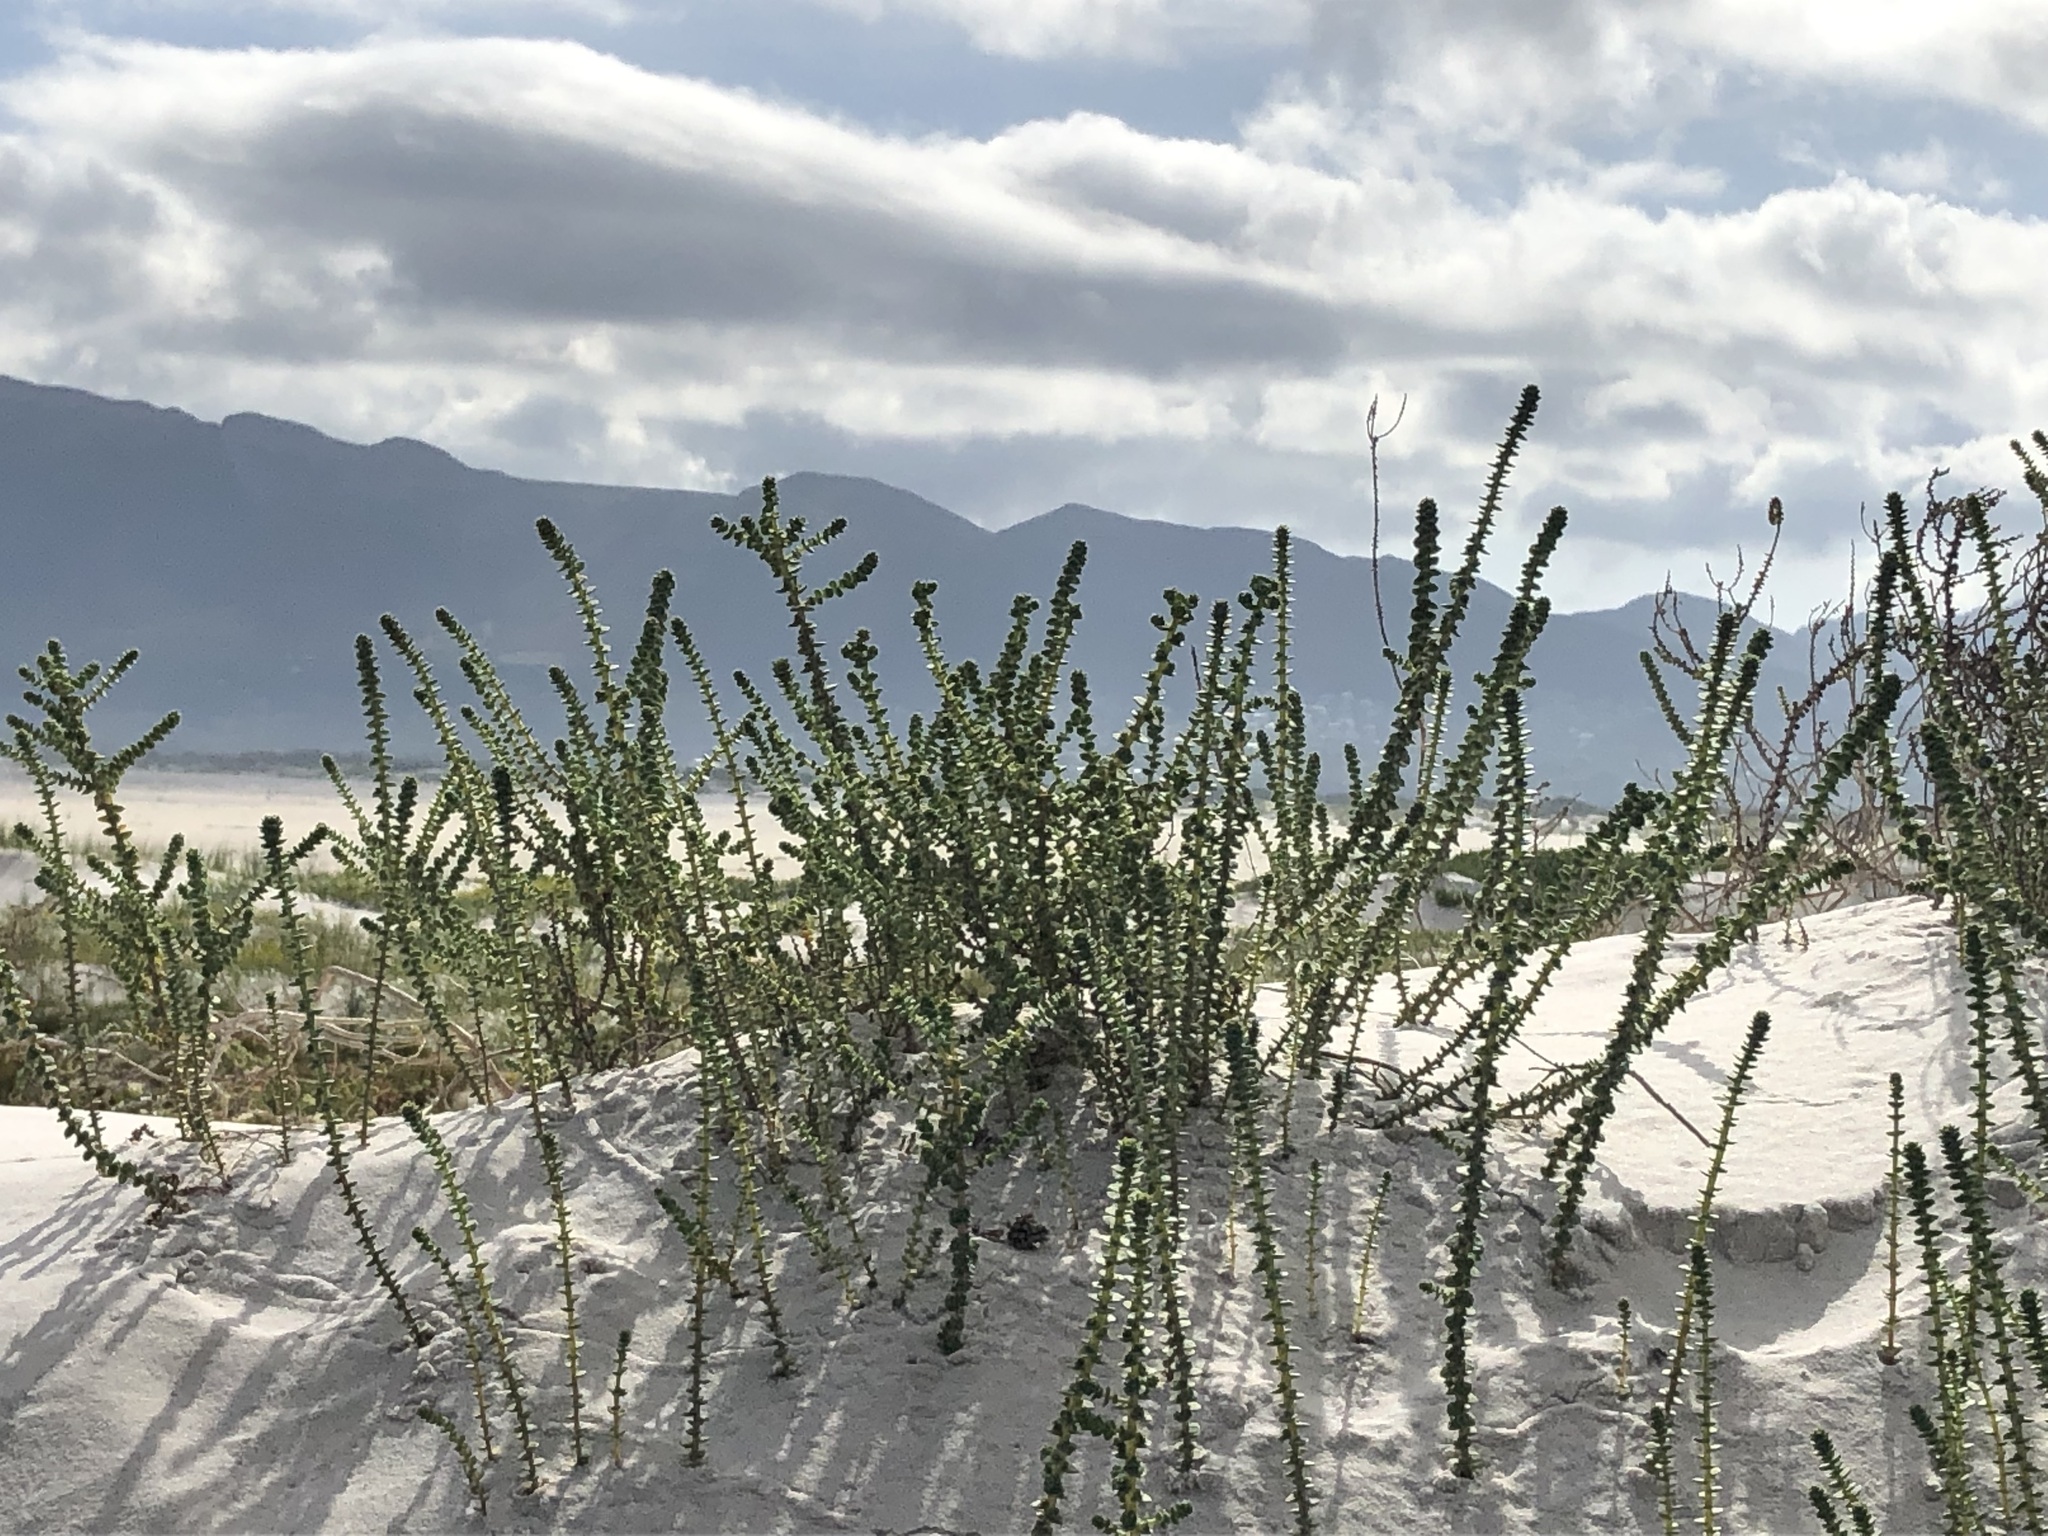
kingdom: Plantae
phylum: Tracheophyta
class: Magnoliopsida
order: Fagales
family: Myricaceae
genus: Morella
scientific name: Morella cordifolia
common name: Waxberry
